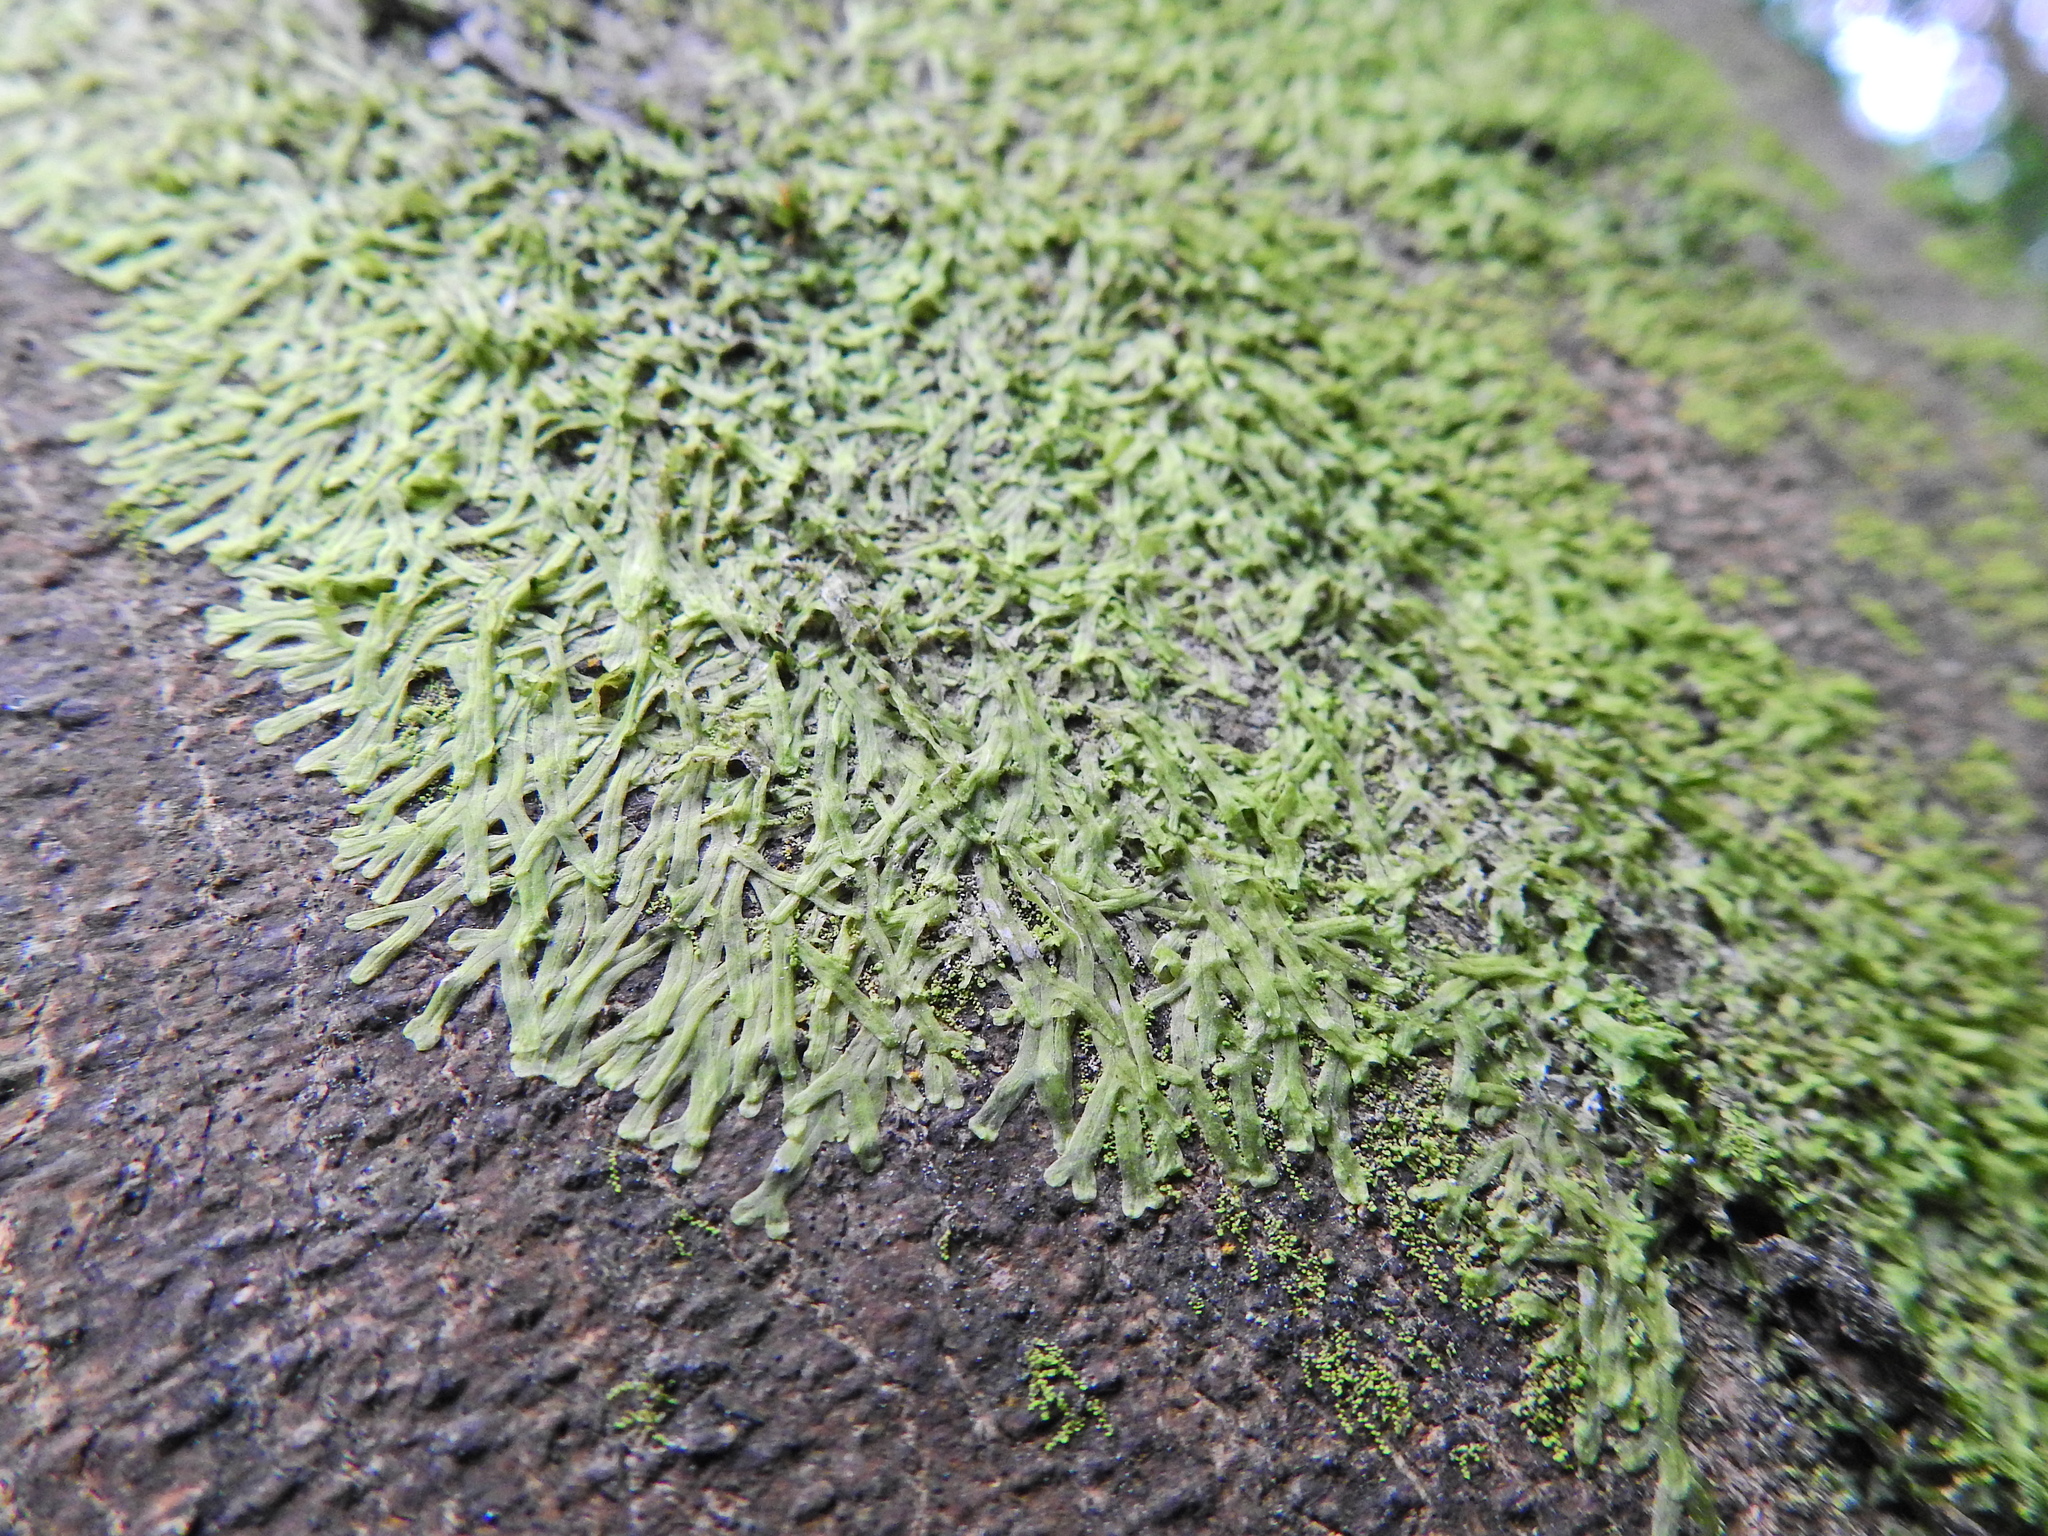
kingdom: Plantae
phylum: Marchantiophyta
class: Jungermanniopsida
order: Metzgeriales
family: Metzgeriaceae
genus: Metzgeria
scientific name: Metzgeria furcata
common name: Forked veilwort
